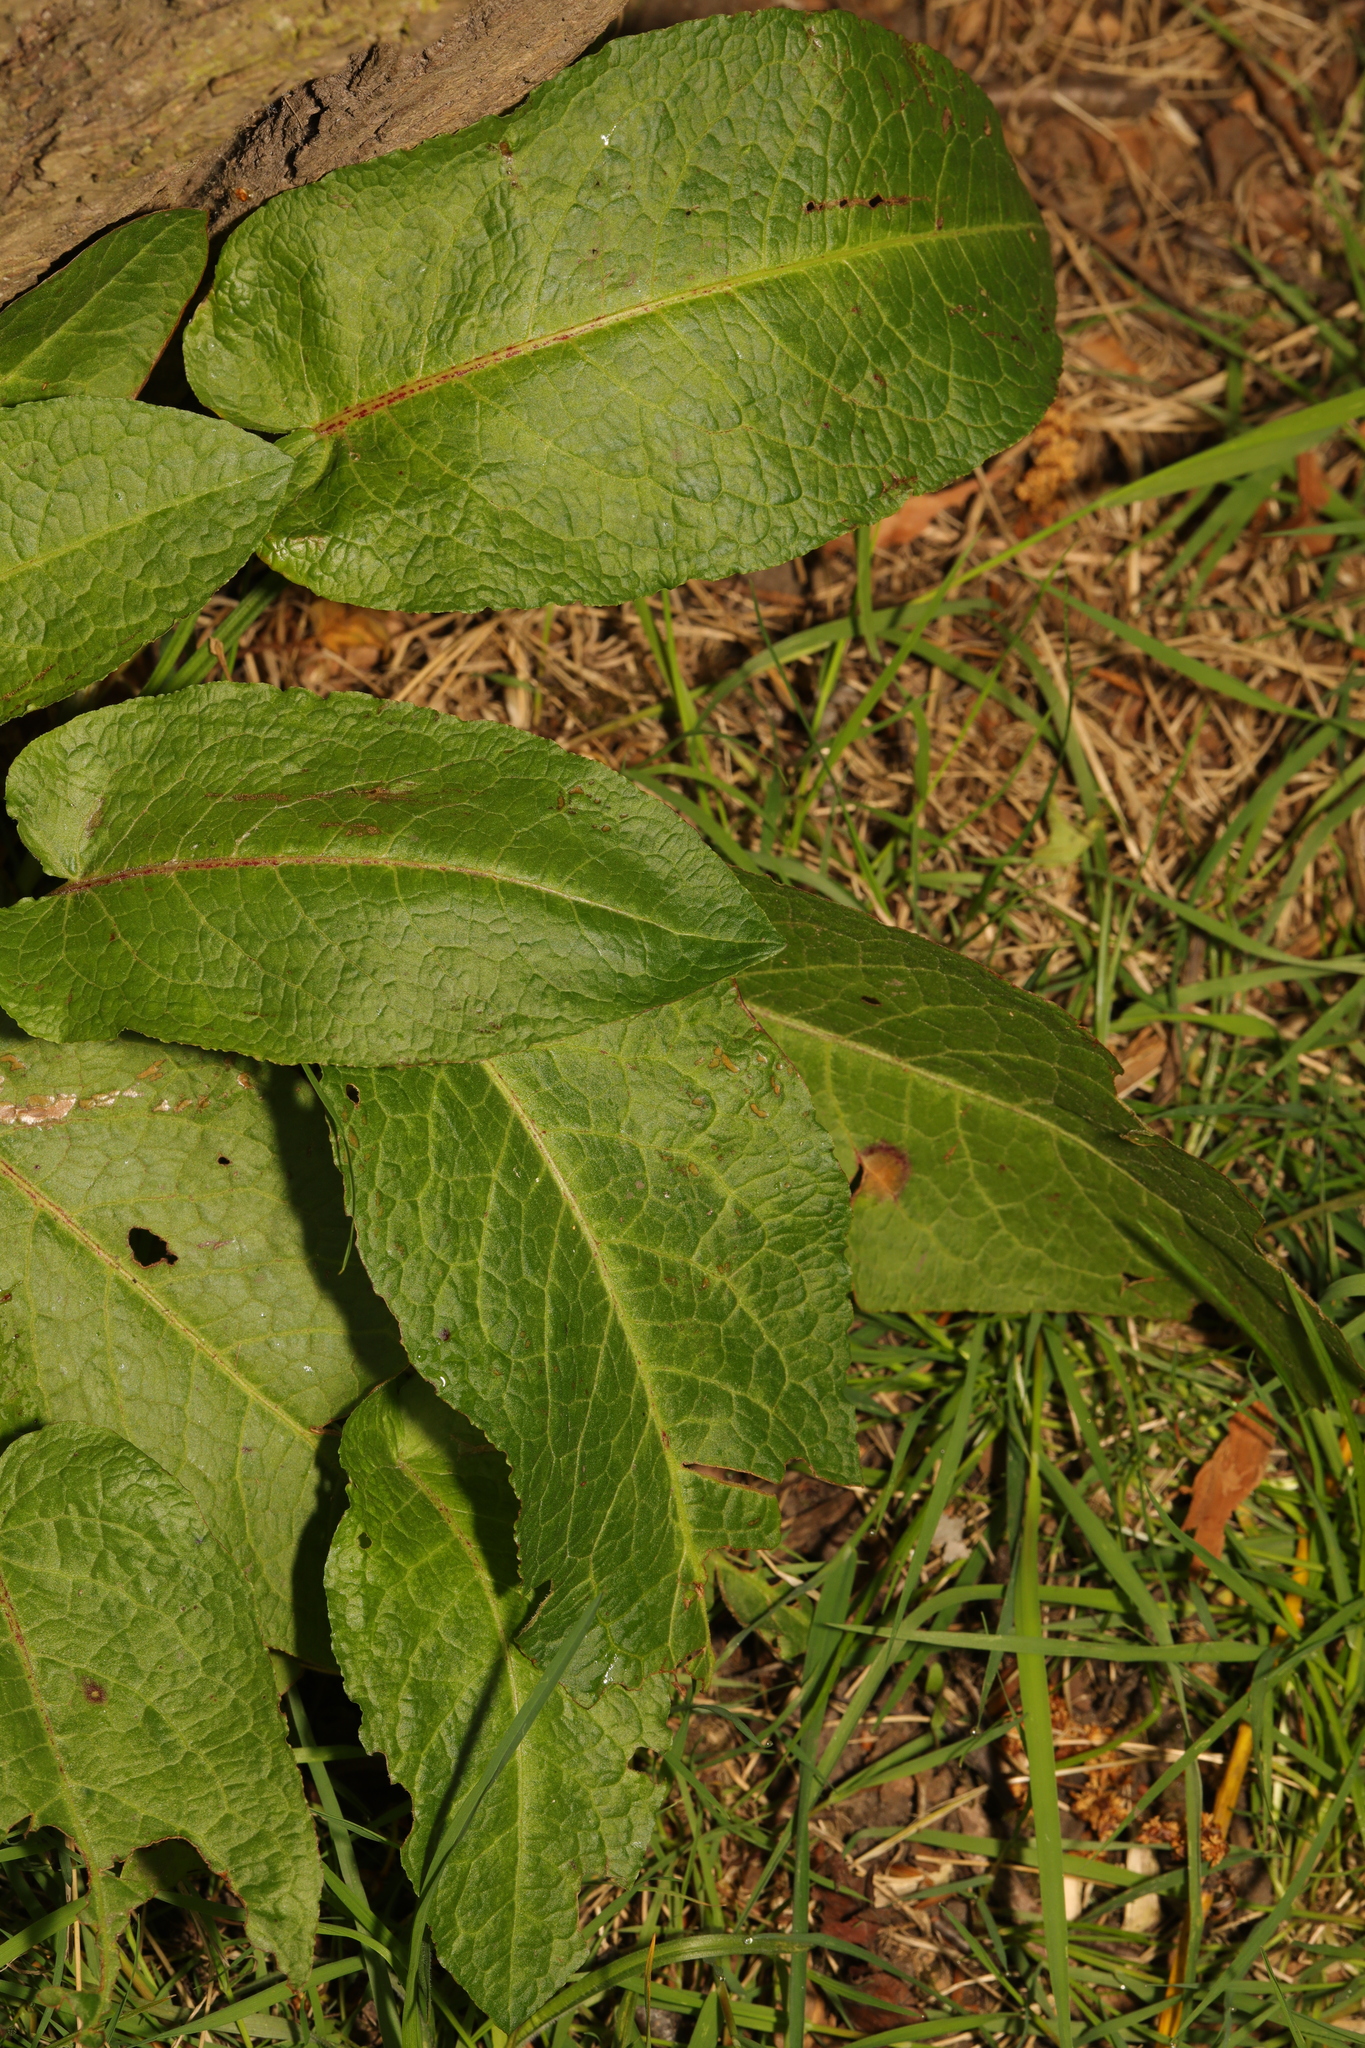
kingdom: Plantae
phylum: Tracheophyta
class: Magnoliopsida
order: Caryophyllales
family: Polygonaceae
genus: Rumex
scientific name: Rumex obtusifolius
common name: Bitter dock
